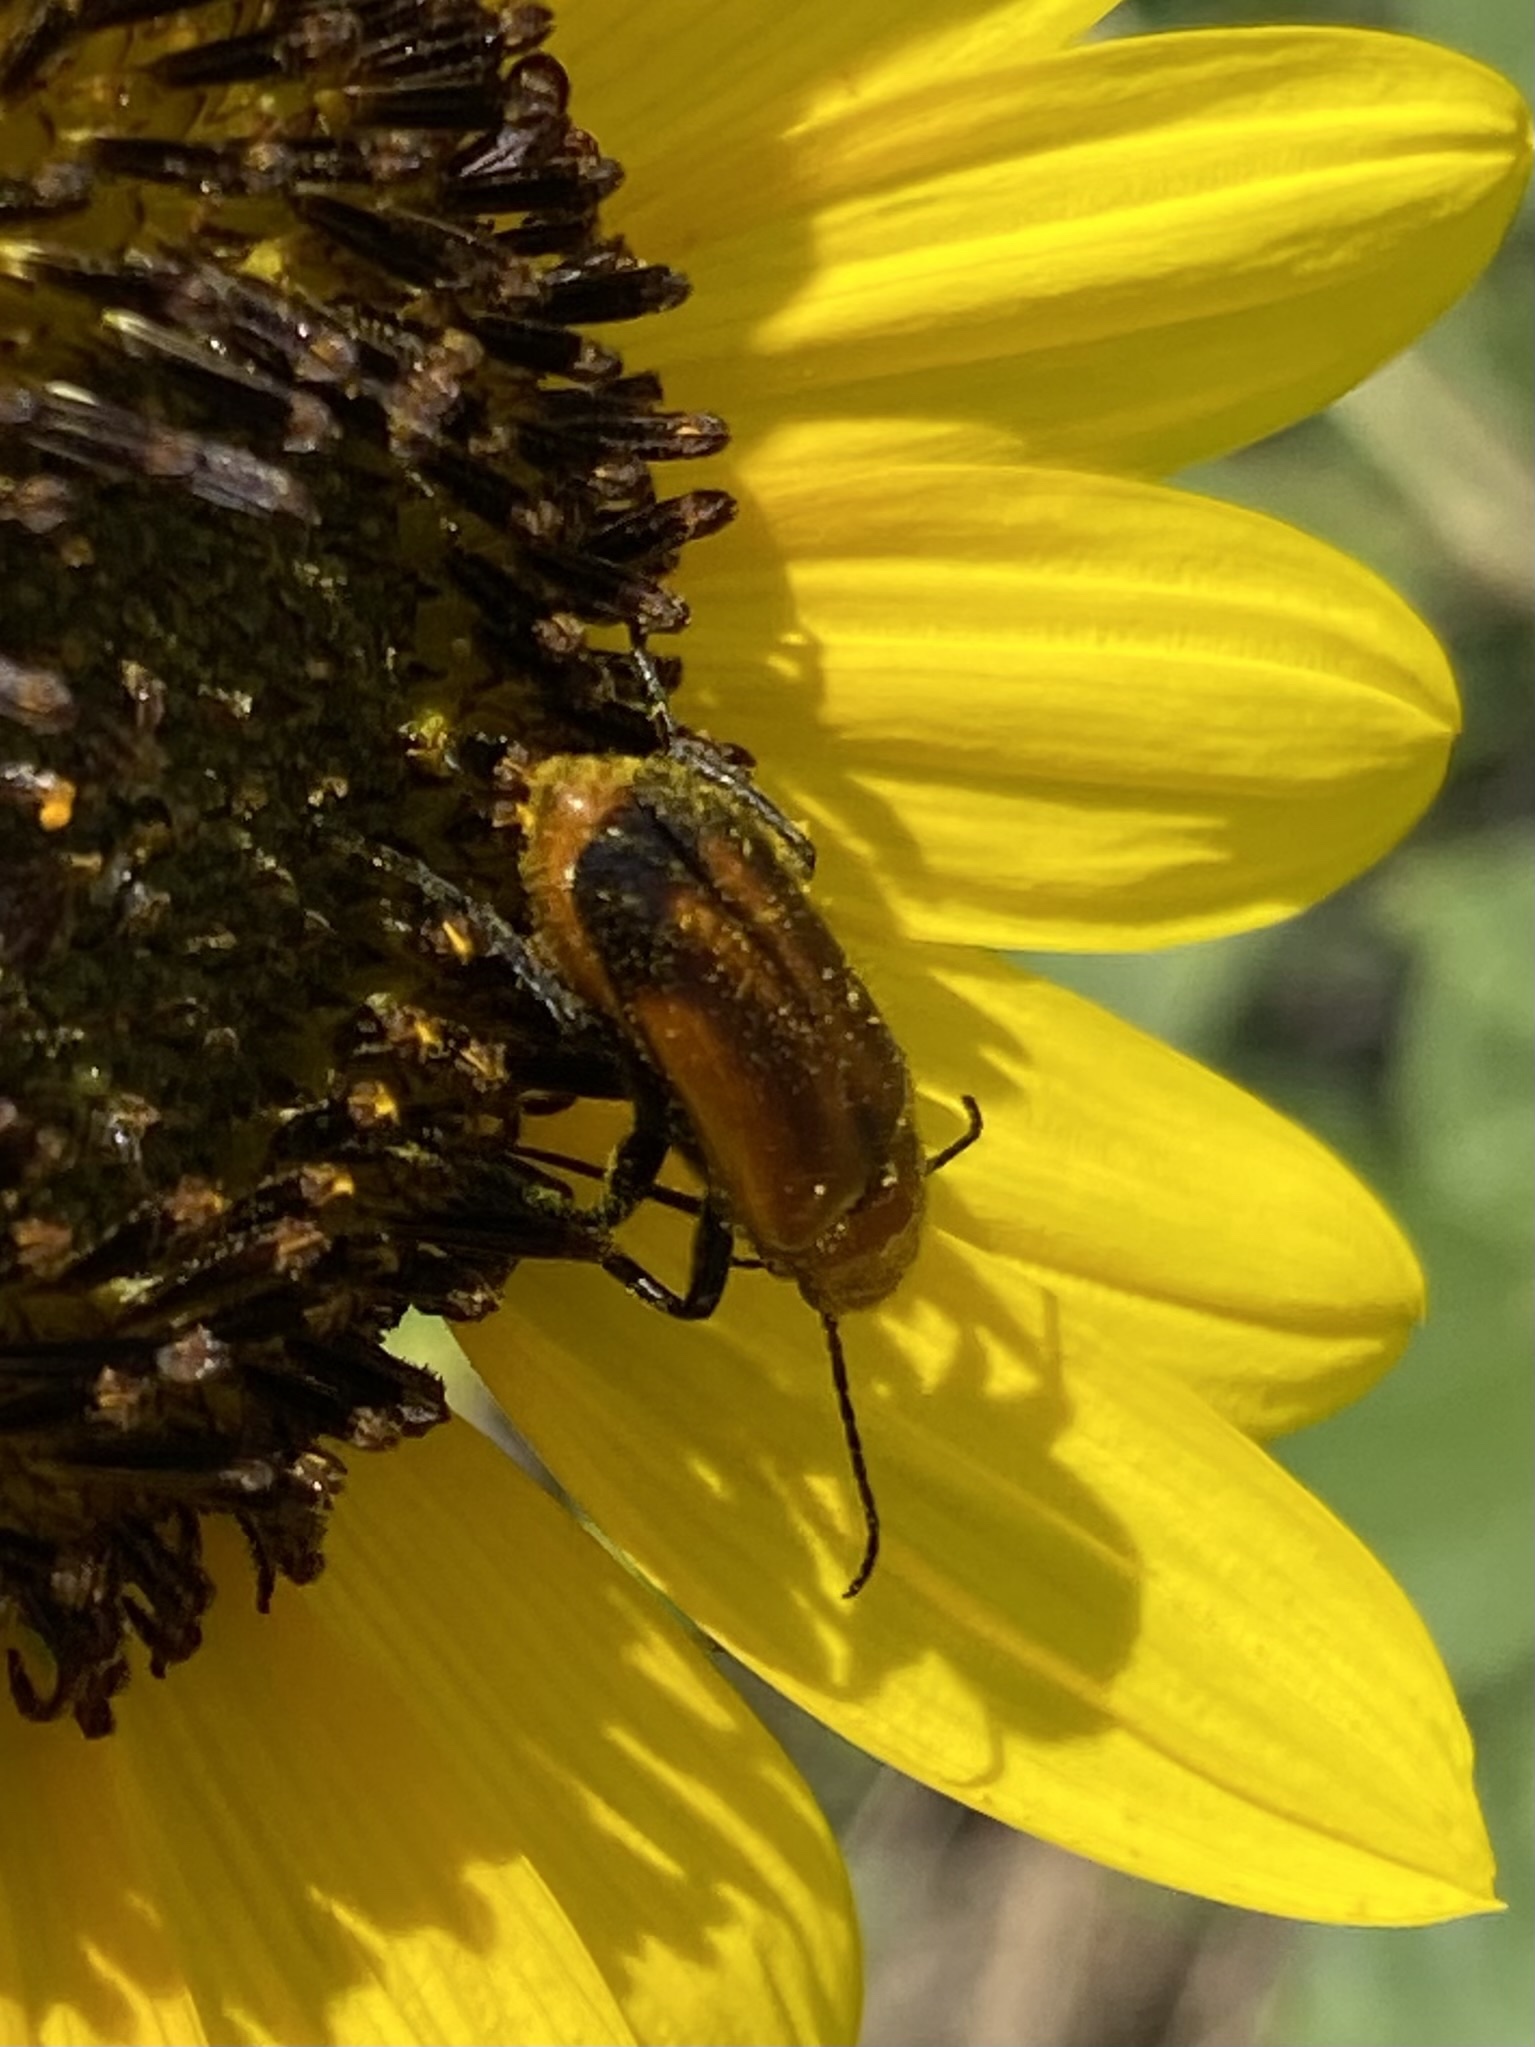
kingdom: Animalia
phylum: Arthropoda
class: Insecta
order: Coleoptera
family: Meloidae
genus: Nemognatha
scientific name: Nemognatha piazata
